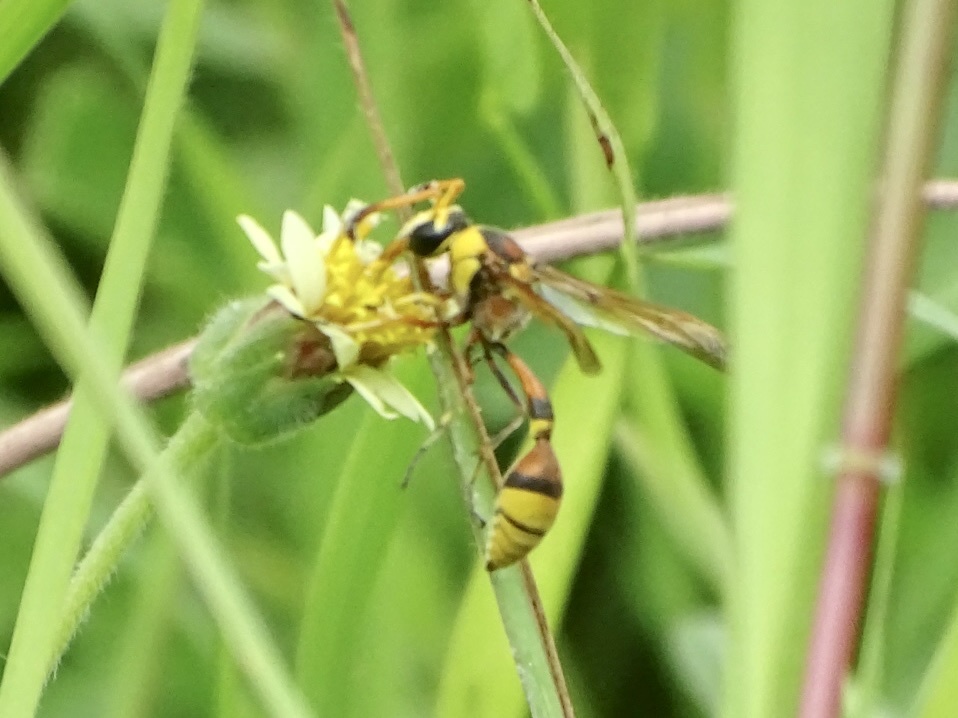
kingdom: Animalia
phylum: Arthropoda
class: Insecta
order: Hymenoptera
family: Eumenidae
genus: Delta
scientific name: Delta esuriens
